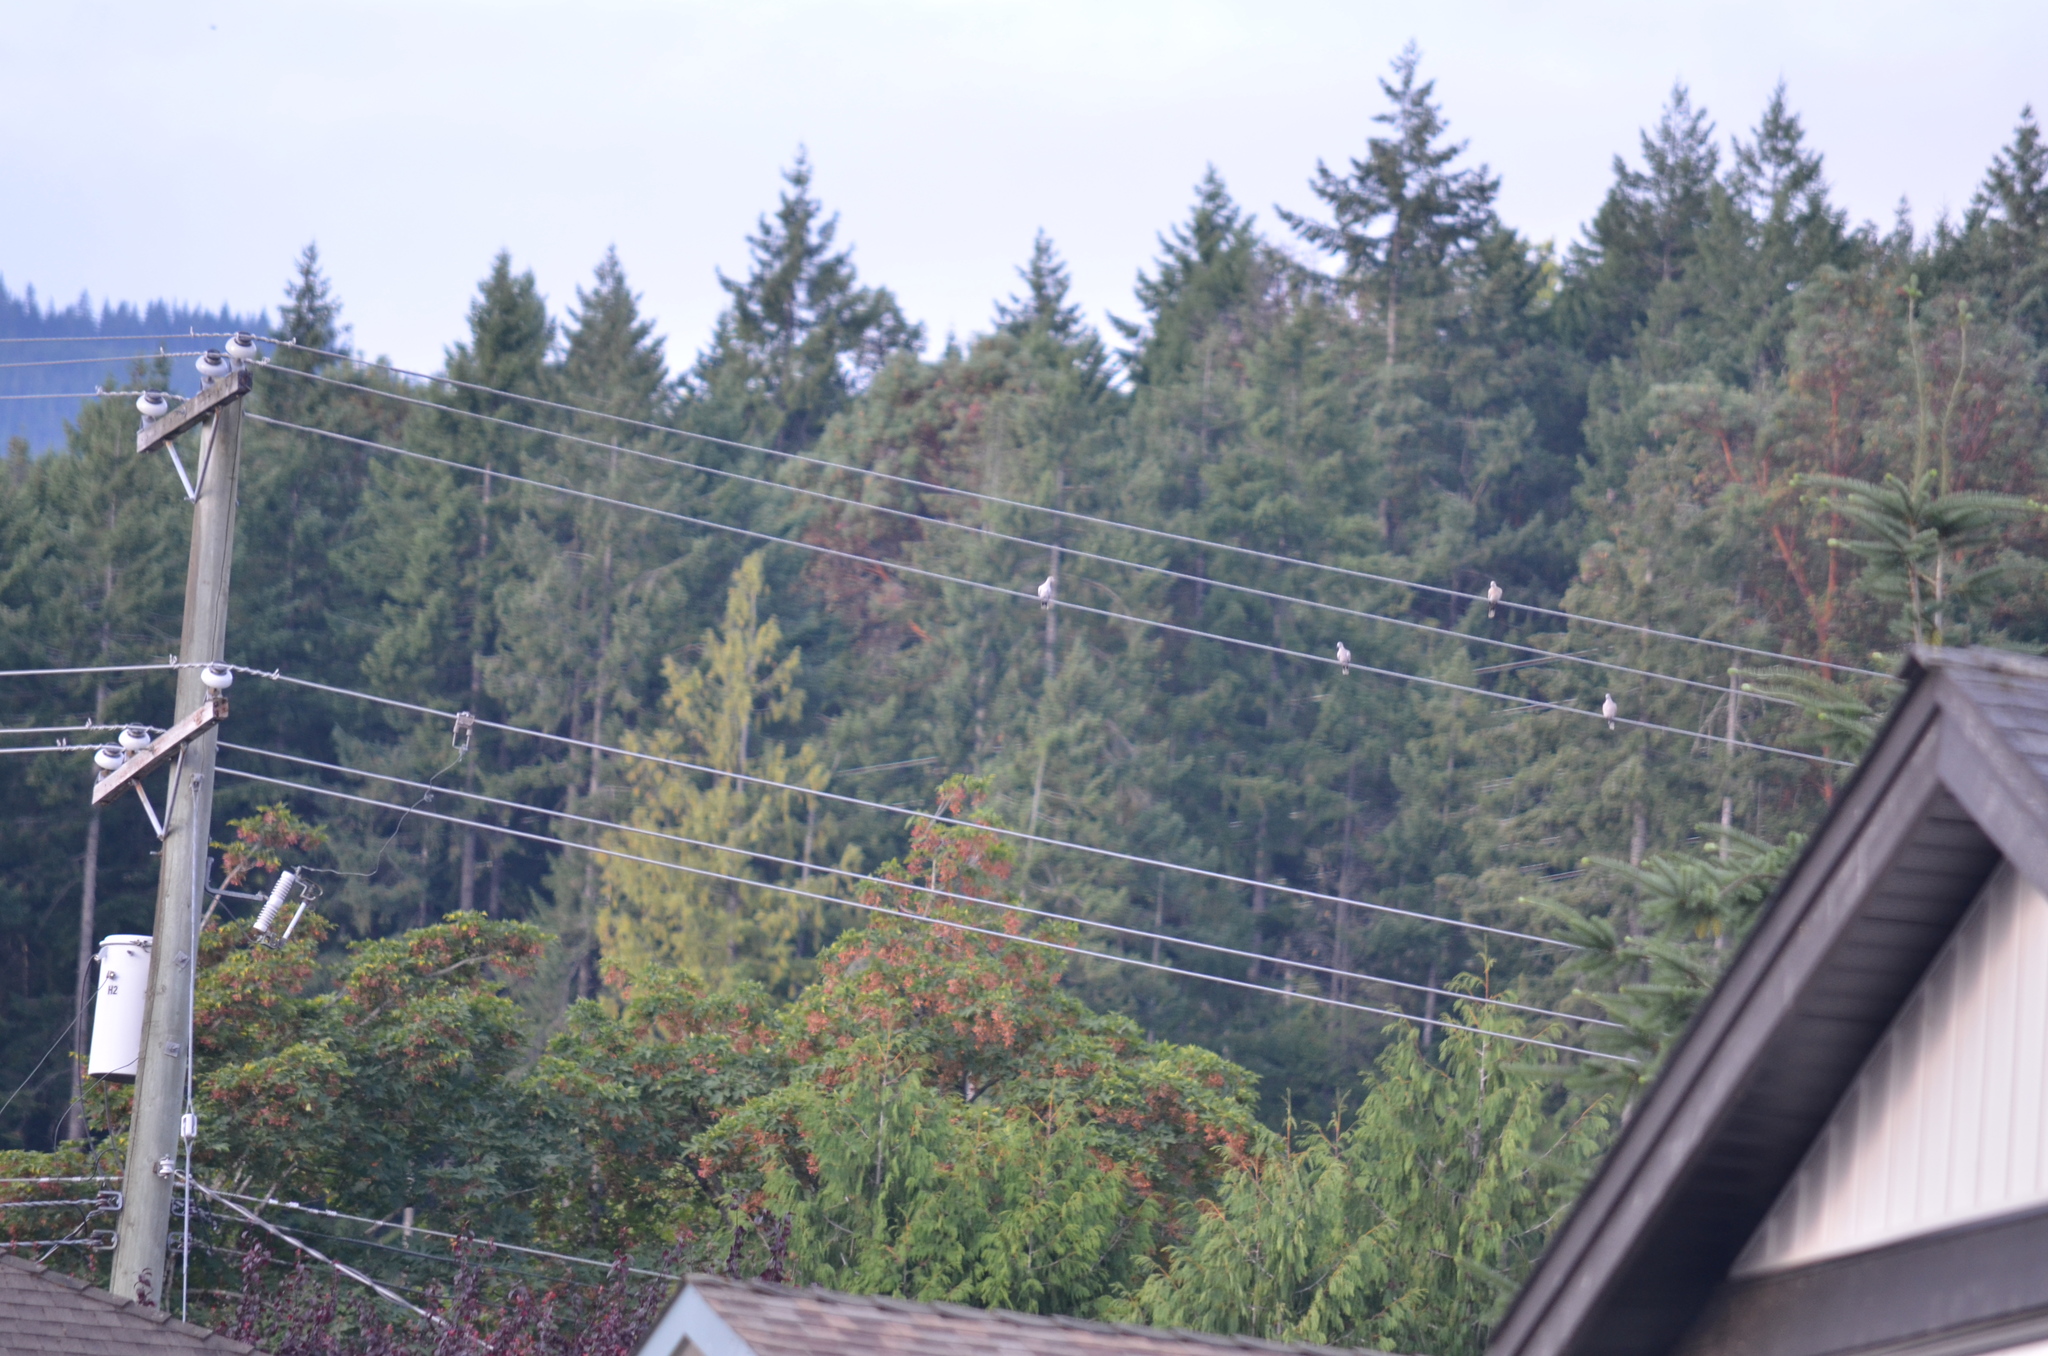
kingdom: Animalia
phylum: Chordata
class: Aves
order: Columbiformes
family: Columbidae
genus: Streptopelia
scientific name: Streptopelia decaocto
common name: Eurasian collared dove
